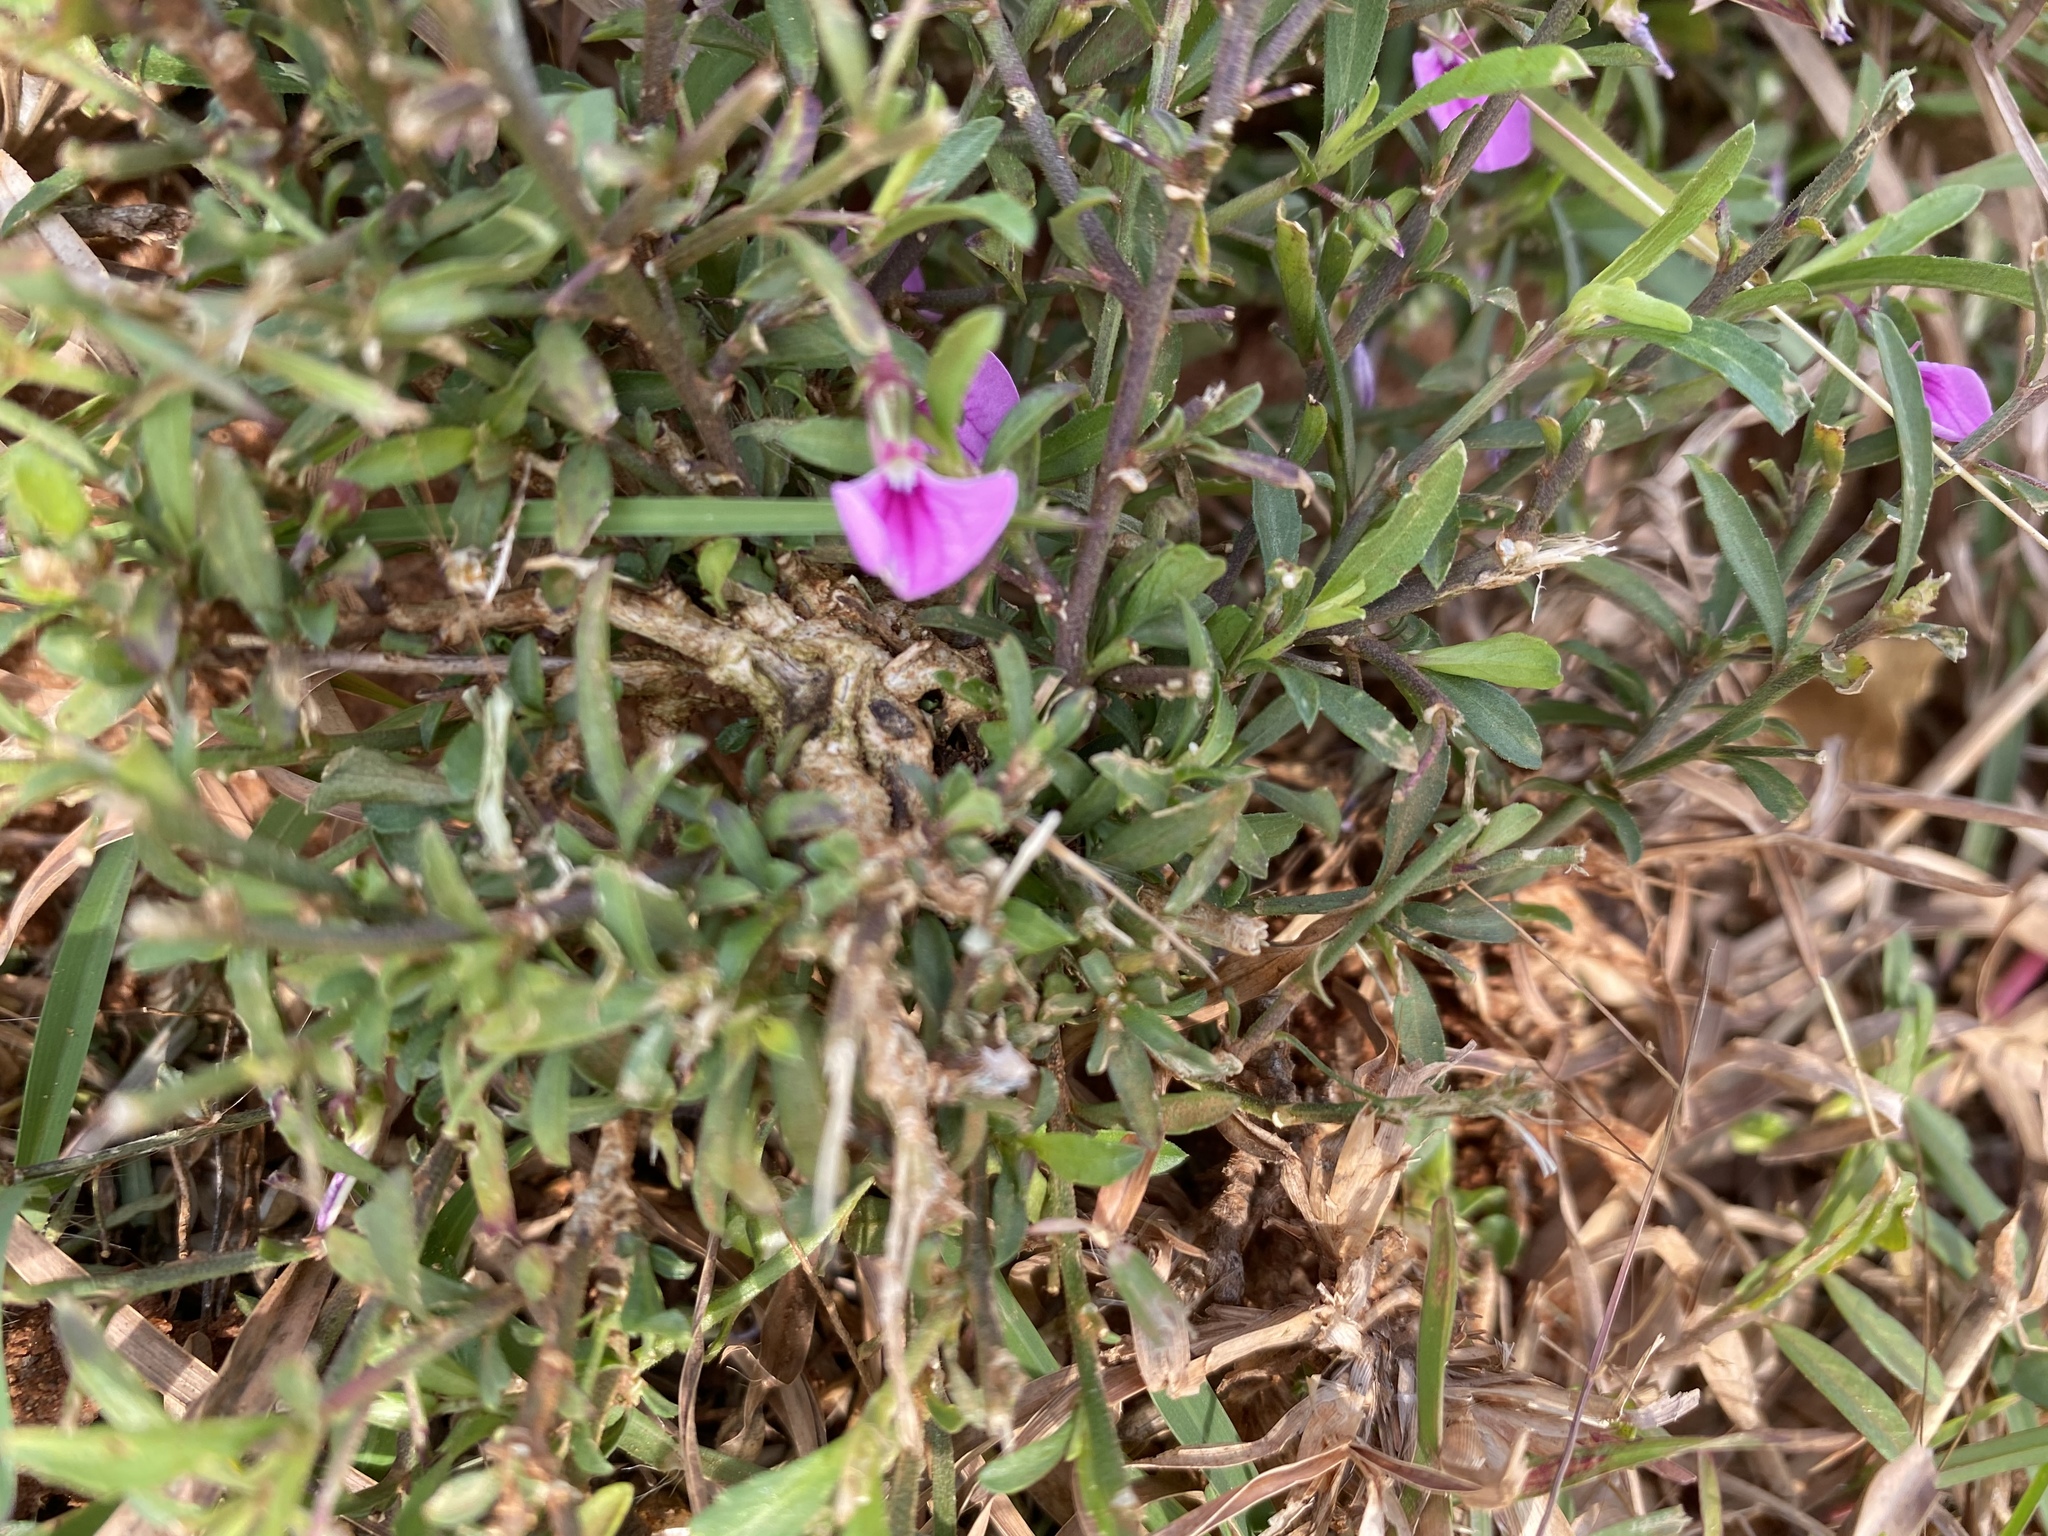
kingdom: Plantae
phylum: Tracheophyta
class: Magnoliopsida
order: Malpighiales
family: Violaceae
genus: Pigea
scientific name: Pigea enneasperma
